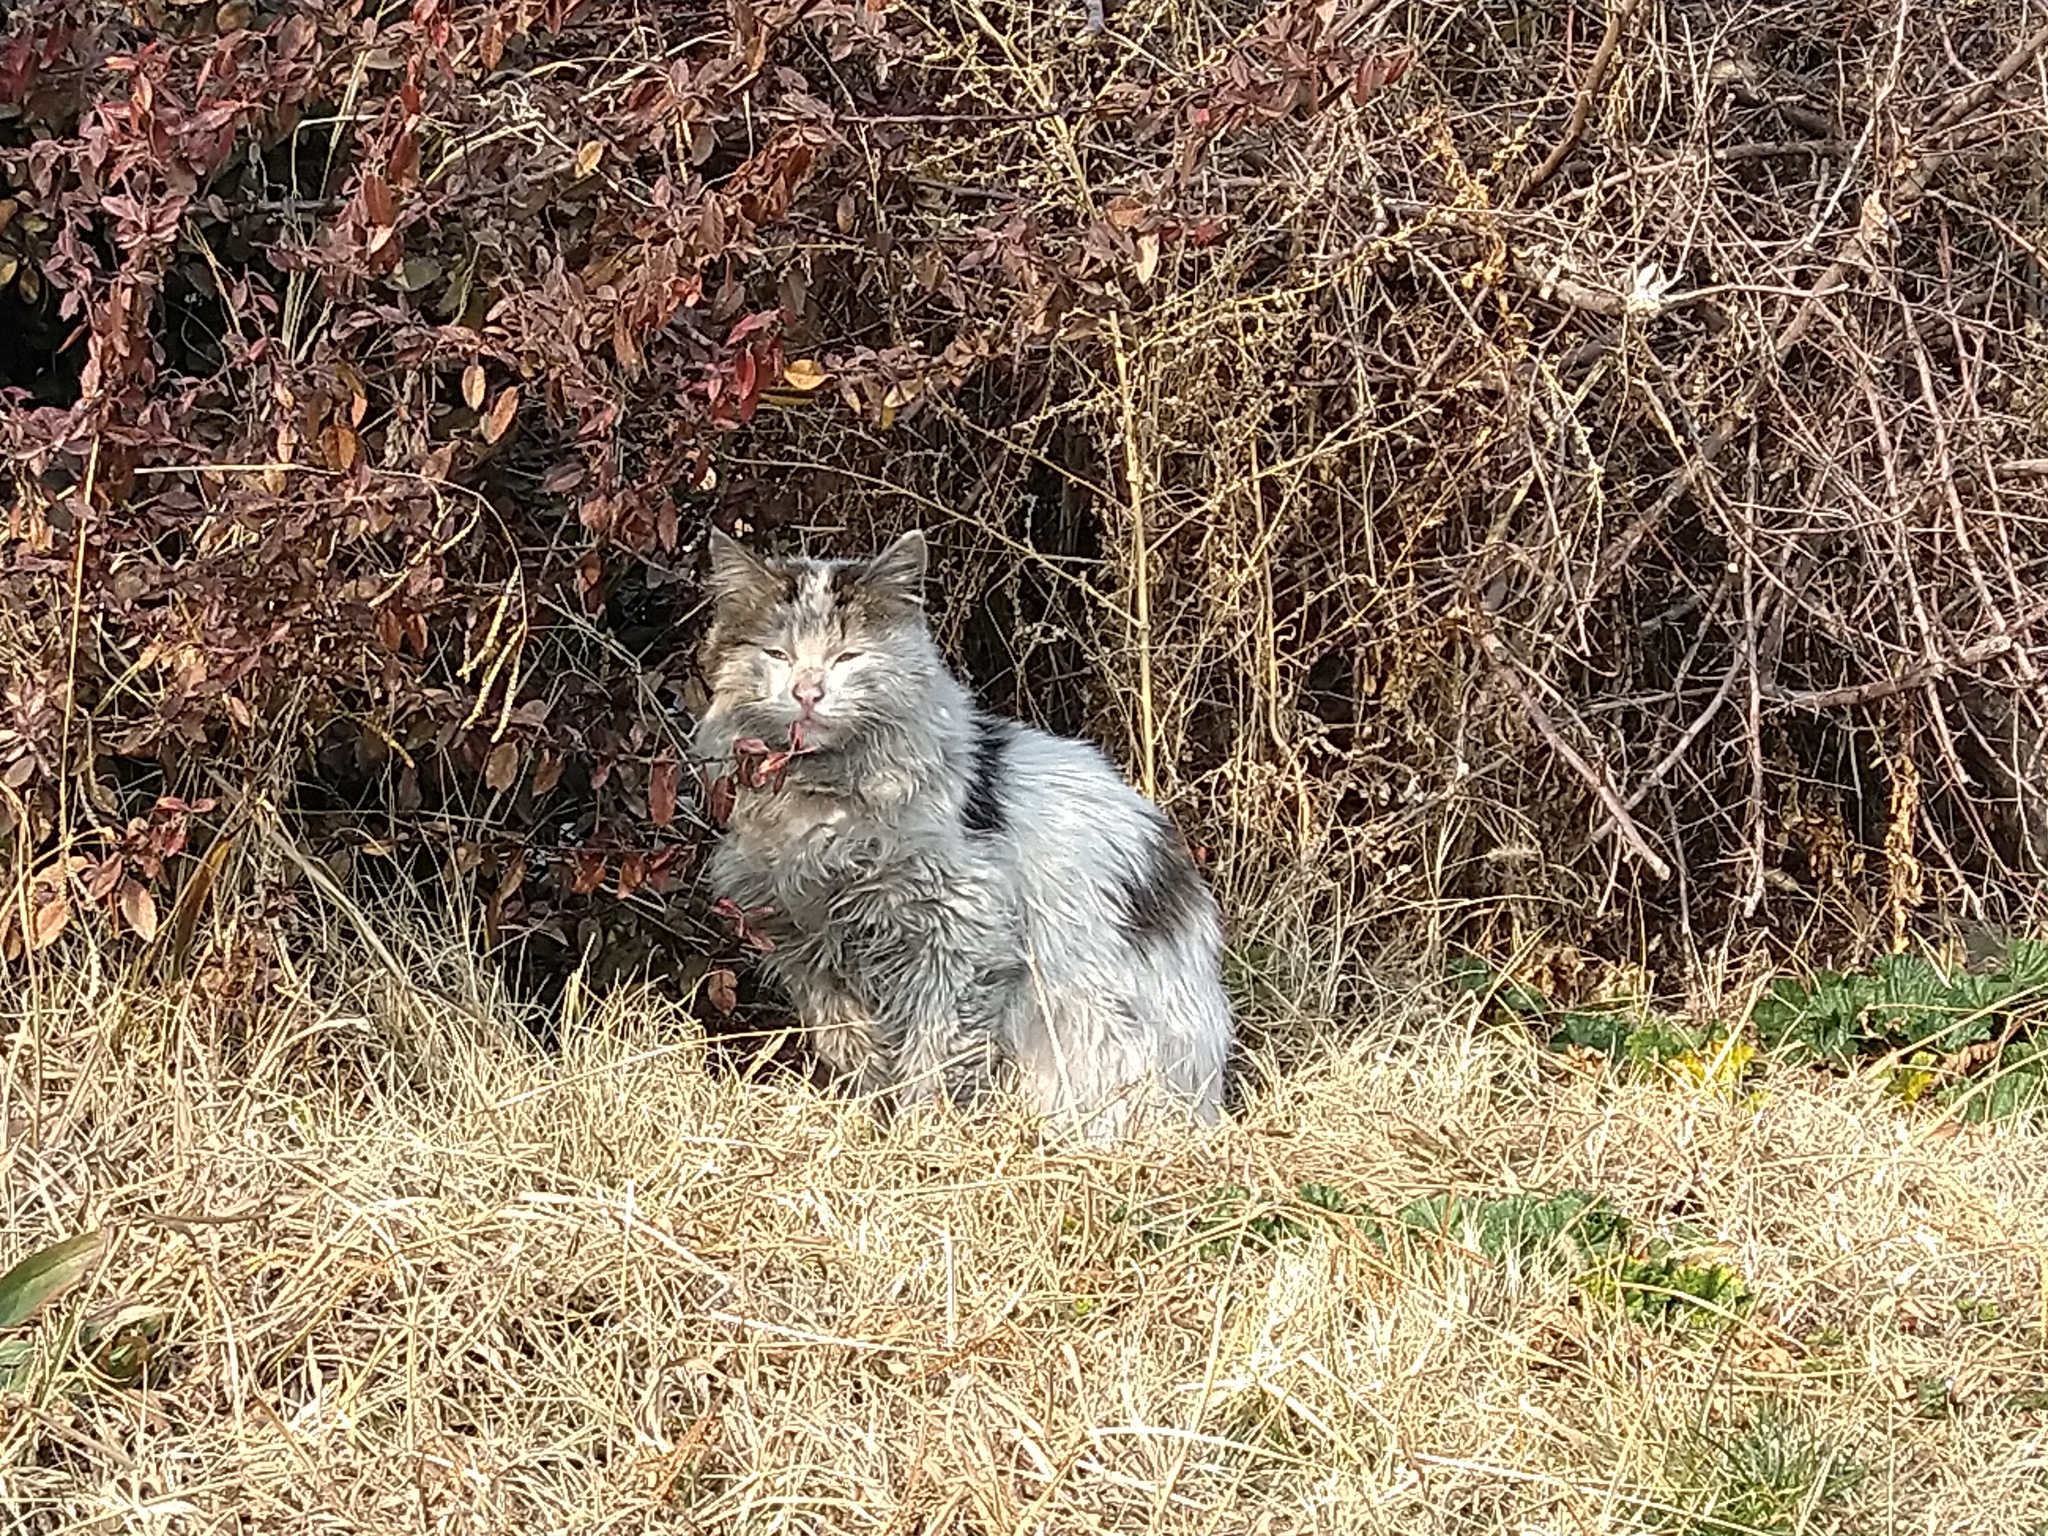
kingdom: Animalia
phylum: Chordata
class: Mammalia
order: Carnivora
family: Felidae
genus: Felis
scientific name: Felis catus
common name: Domestic cat
